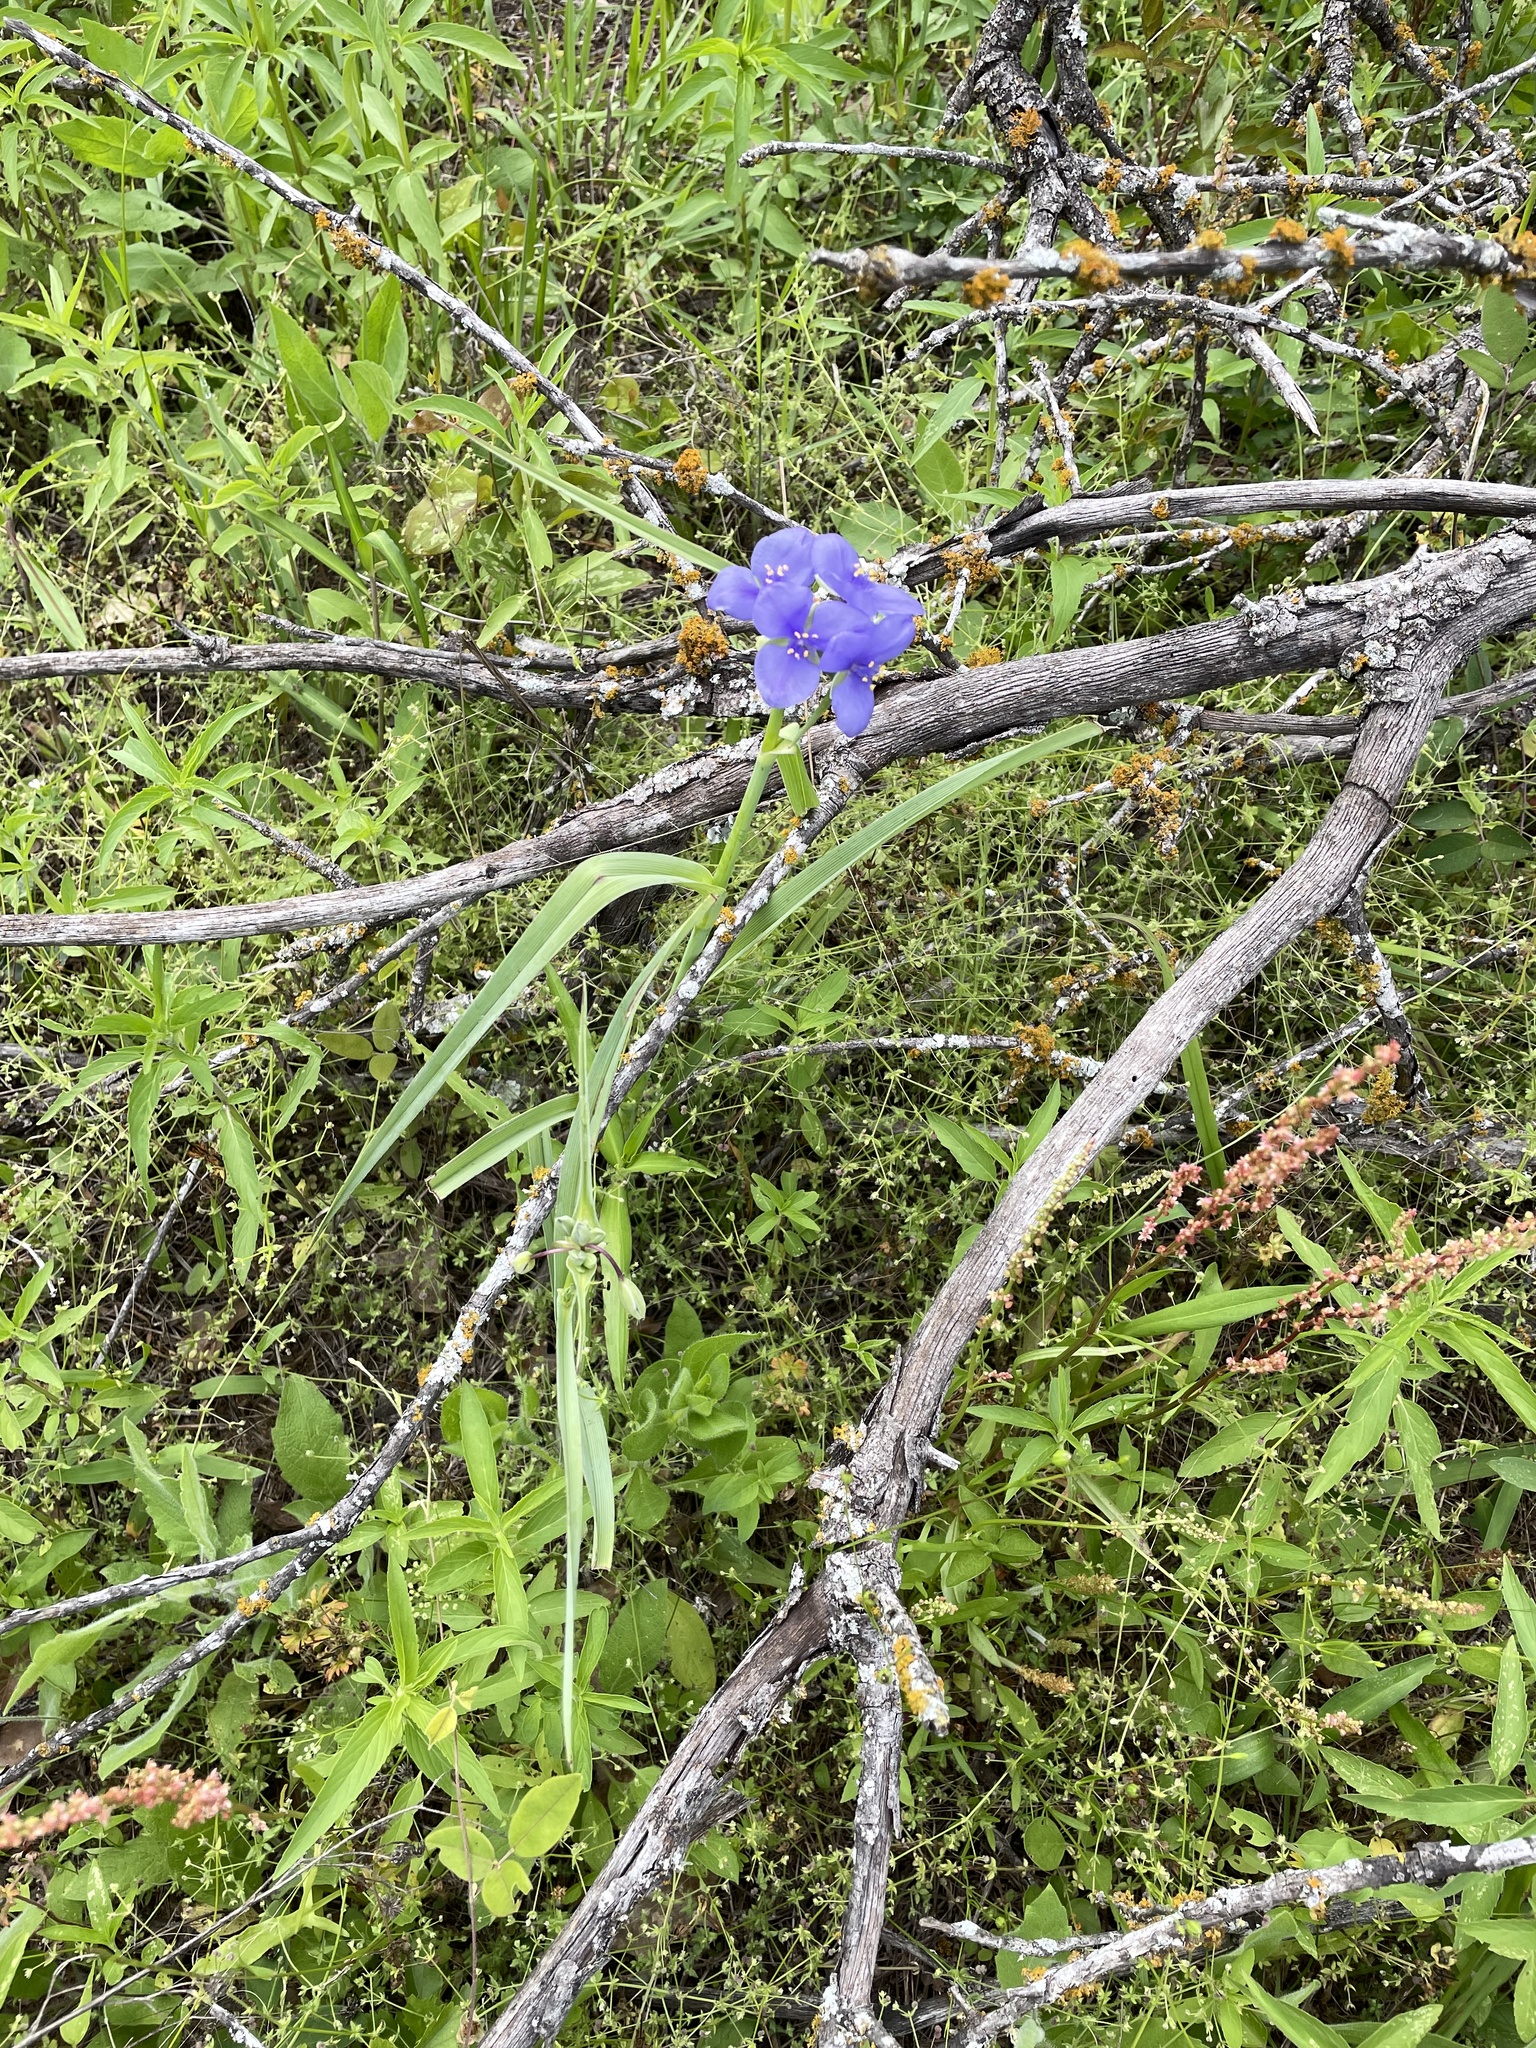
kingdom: Plantae
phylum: Tracheophyta
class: Liliopsida
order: Commelinales
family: Commelinaceae
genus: Tradescantia
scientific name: Tradescantia ohiensis
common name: Ohio spiderwort
